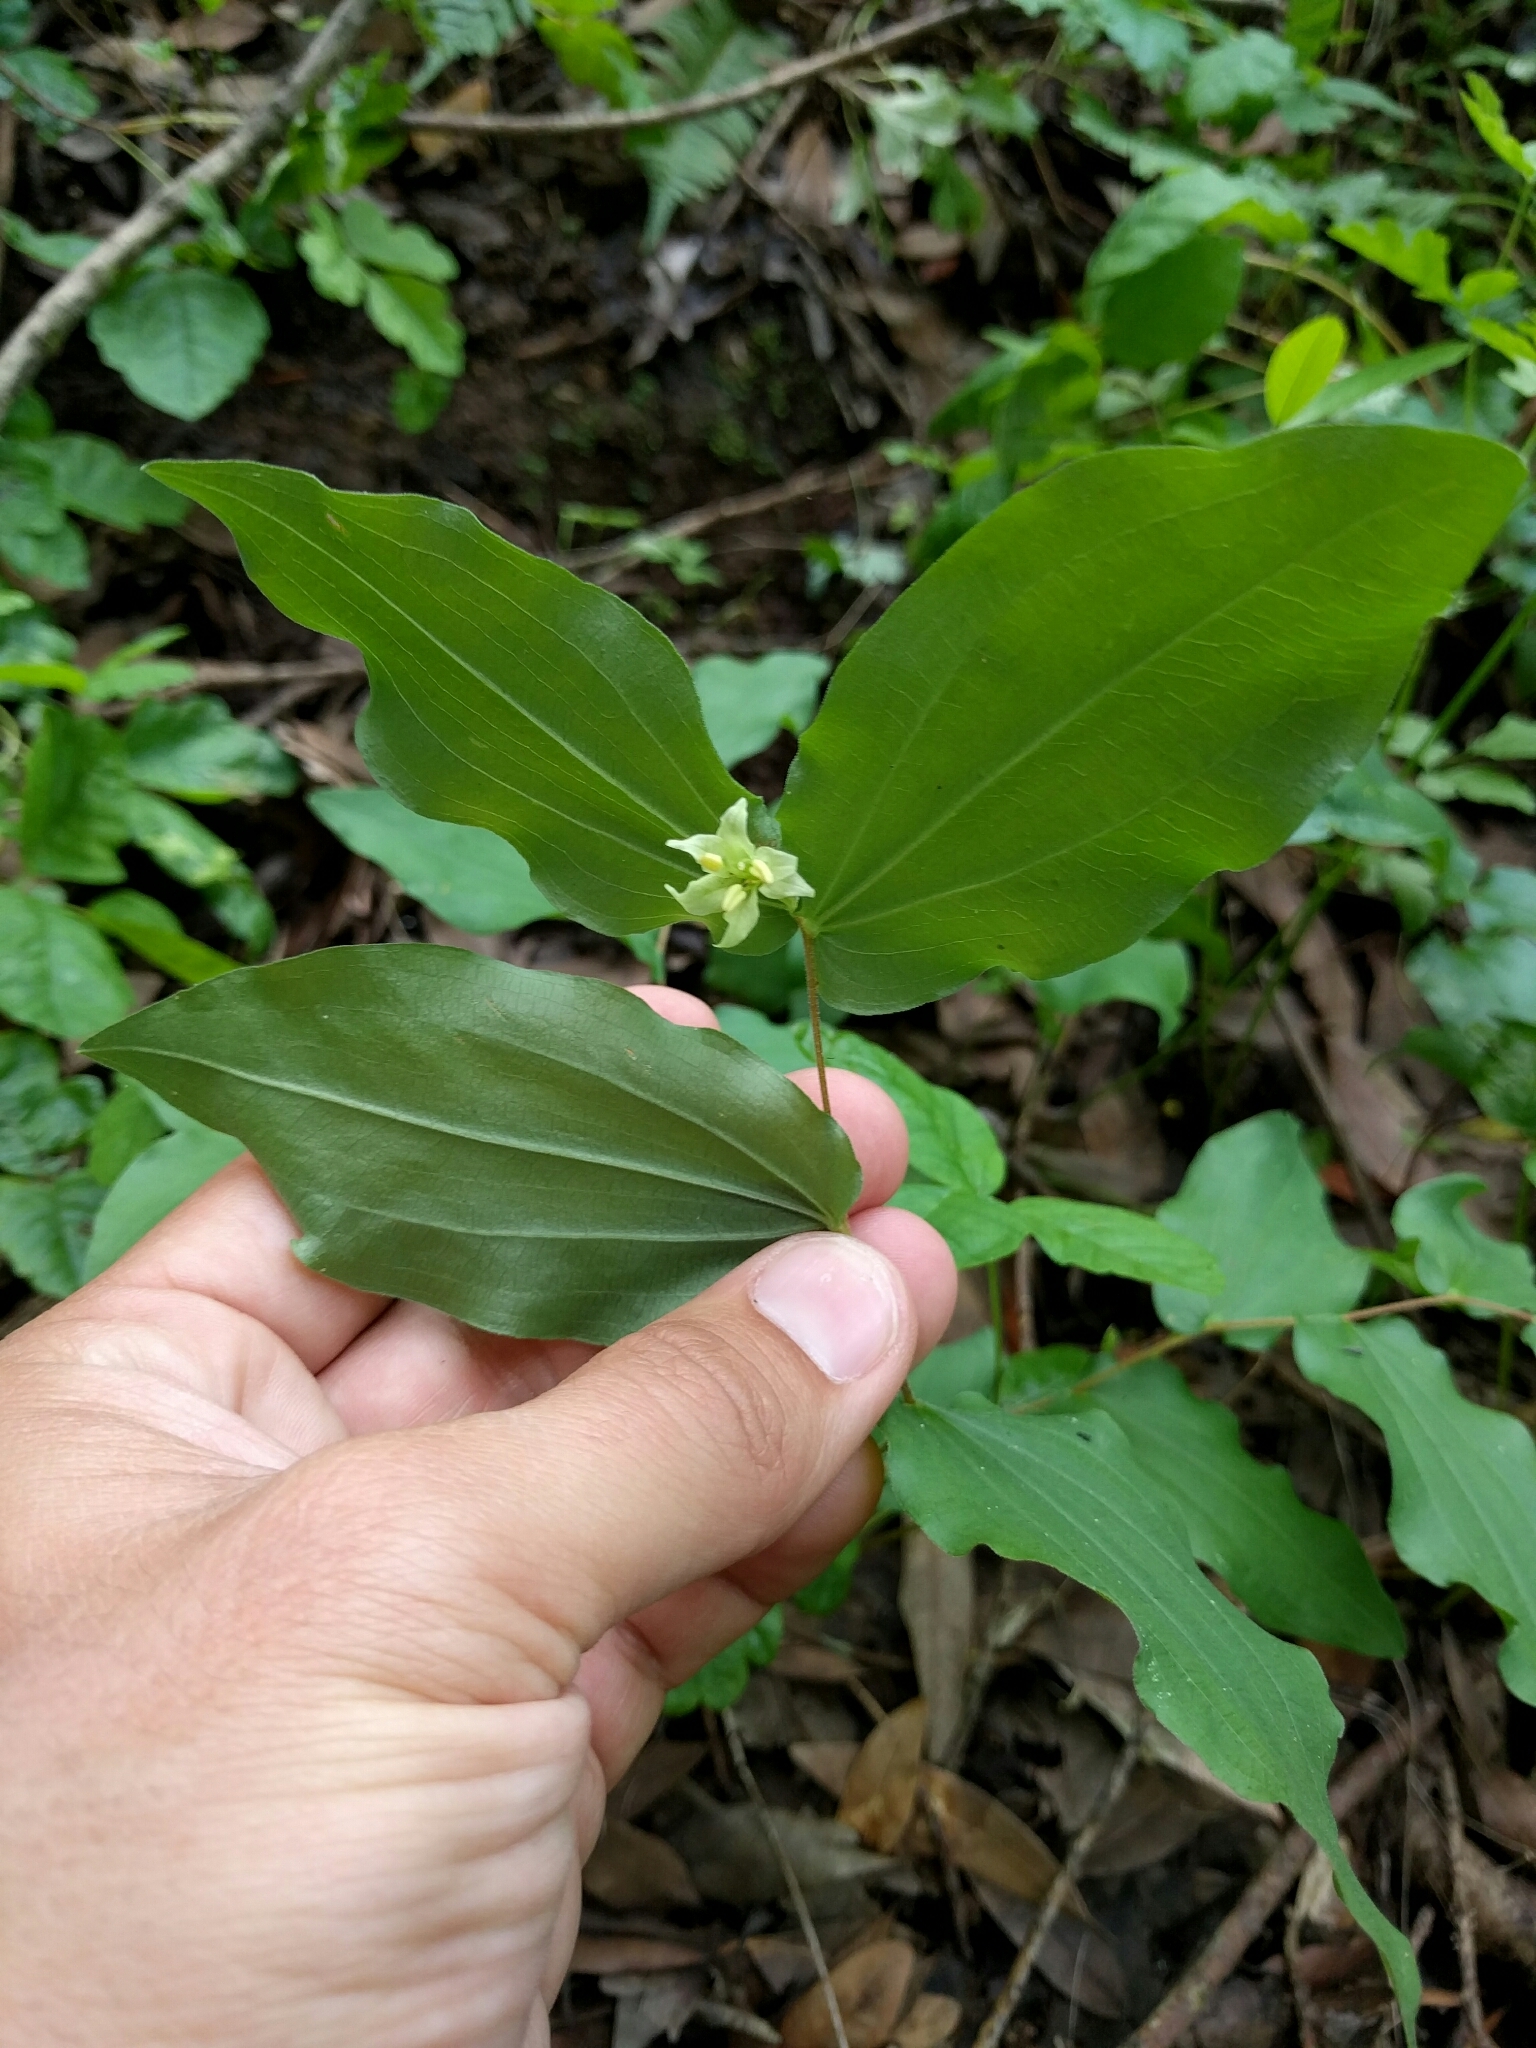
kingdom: Plantae
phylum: Tracheophyta
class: Liliopsida
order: Liliales
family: Liliaceae
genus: Prosartes
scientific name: Prosartes hookeri
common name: Fairy-bells
